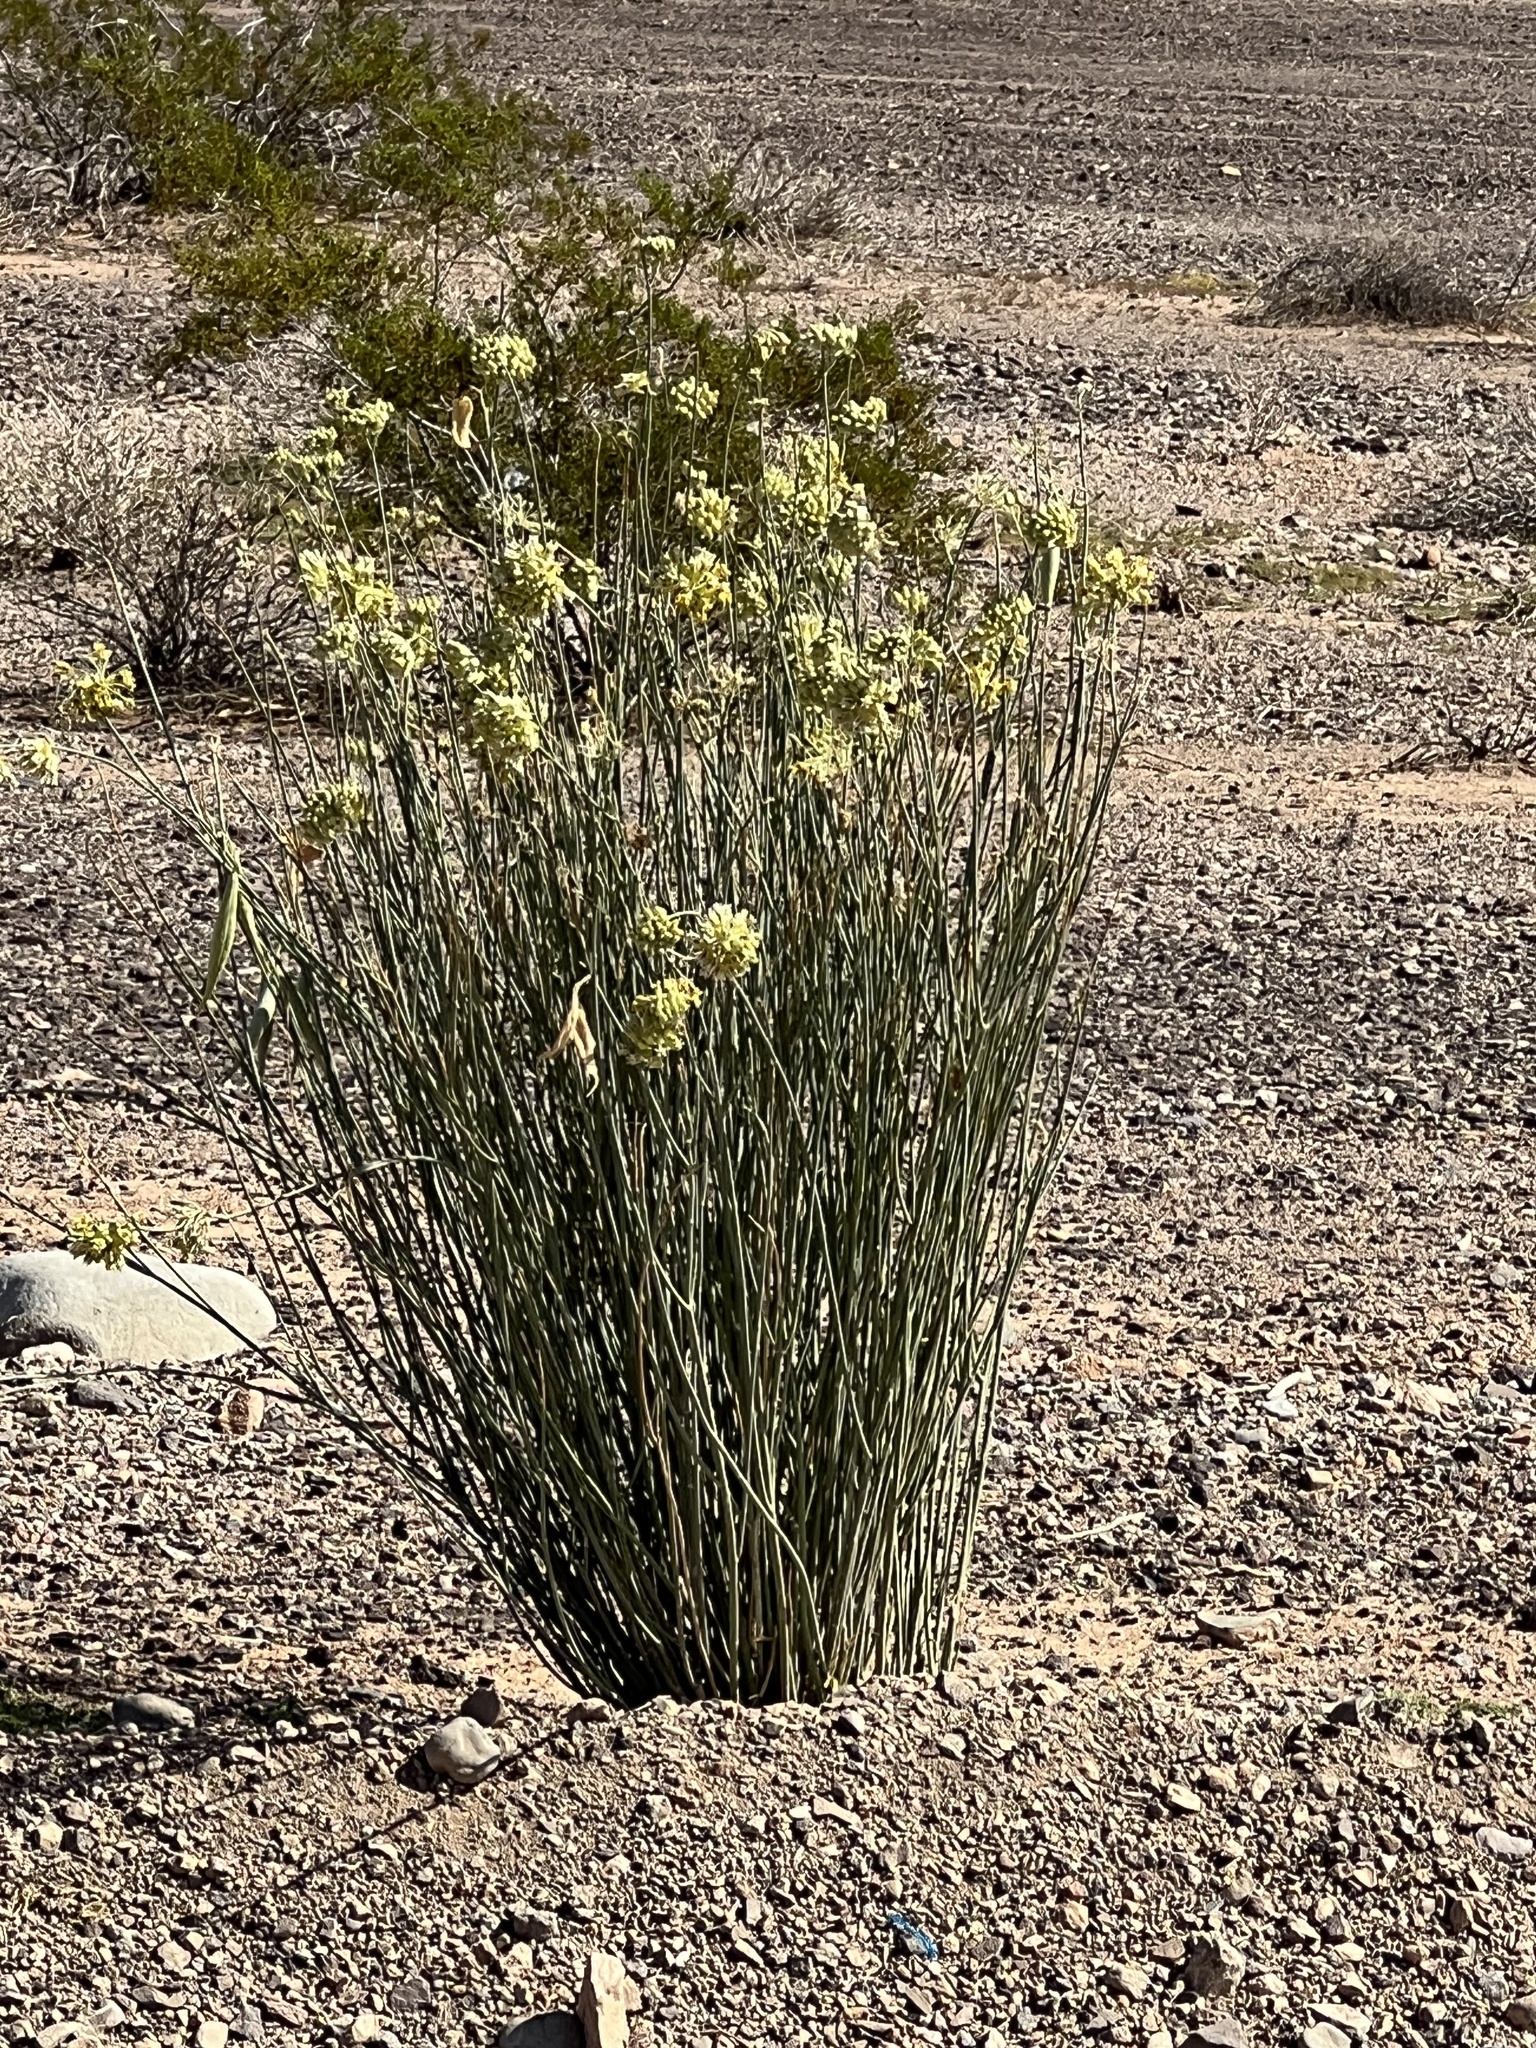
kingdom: Plantae
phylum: Tracheophyta
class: Magnoliopsida
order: Gentianales
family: Apocynaceae
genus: Asclepias
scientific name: Asclepias subulata
